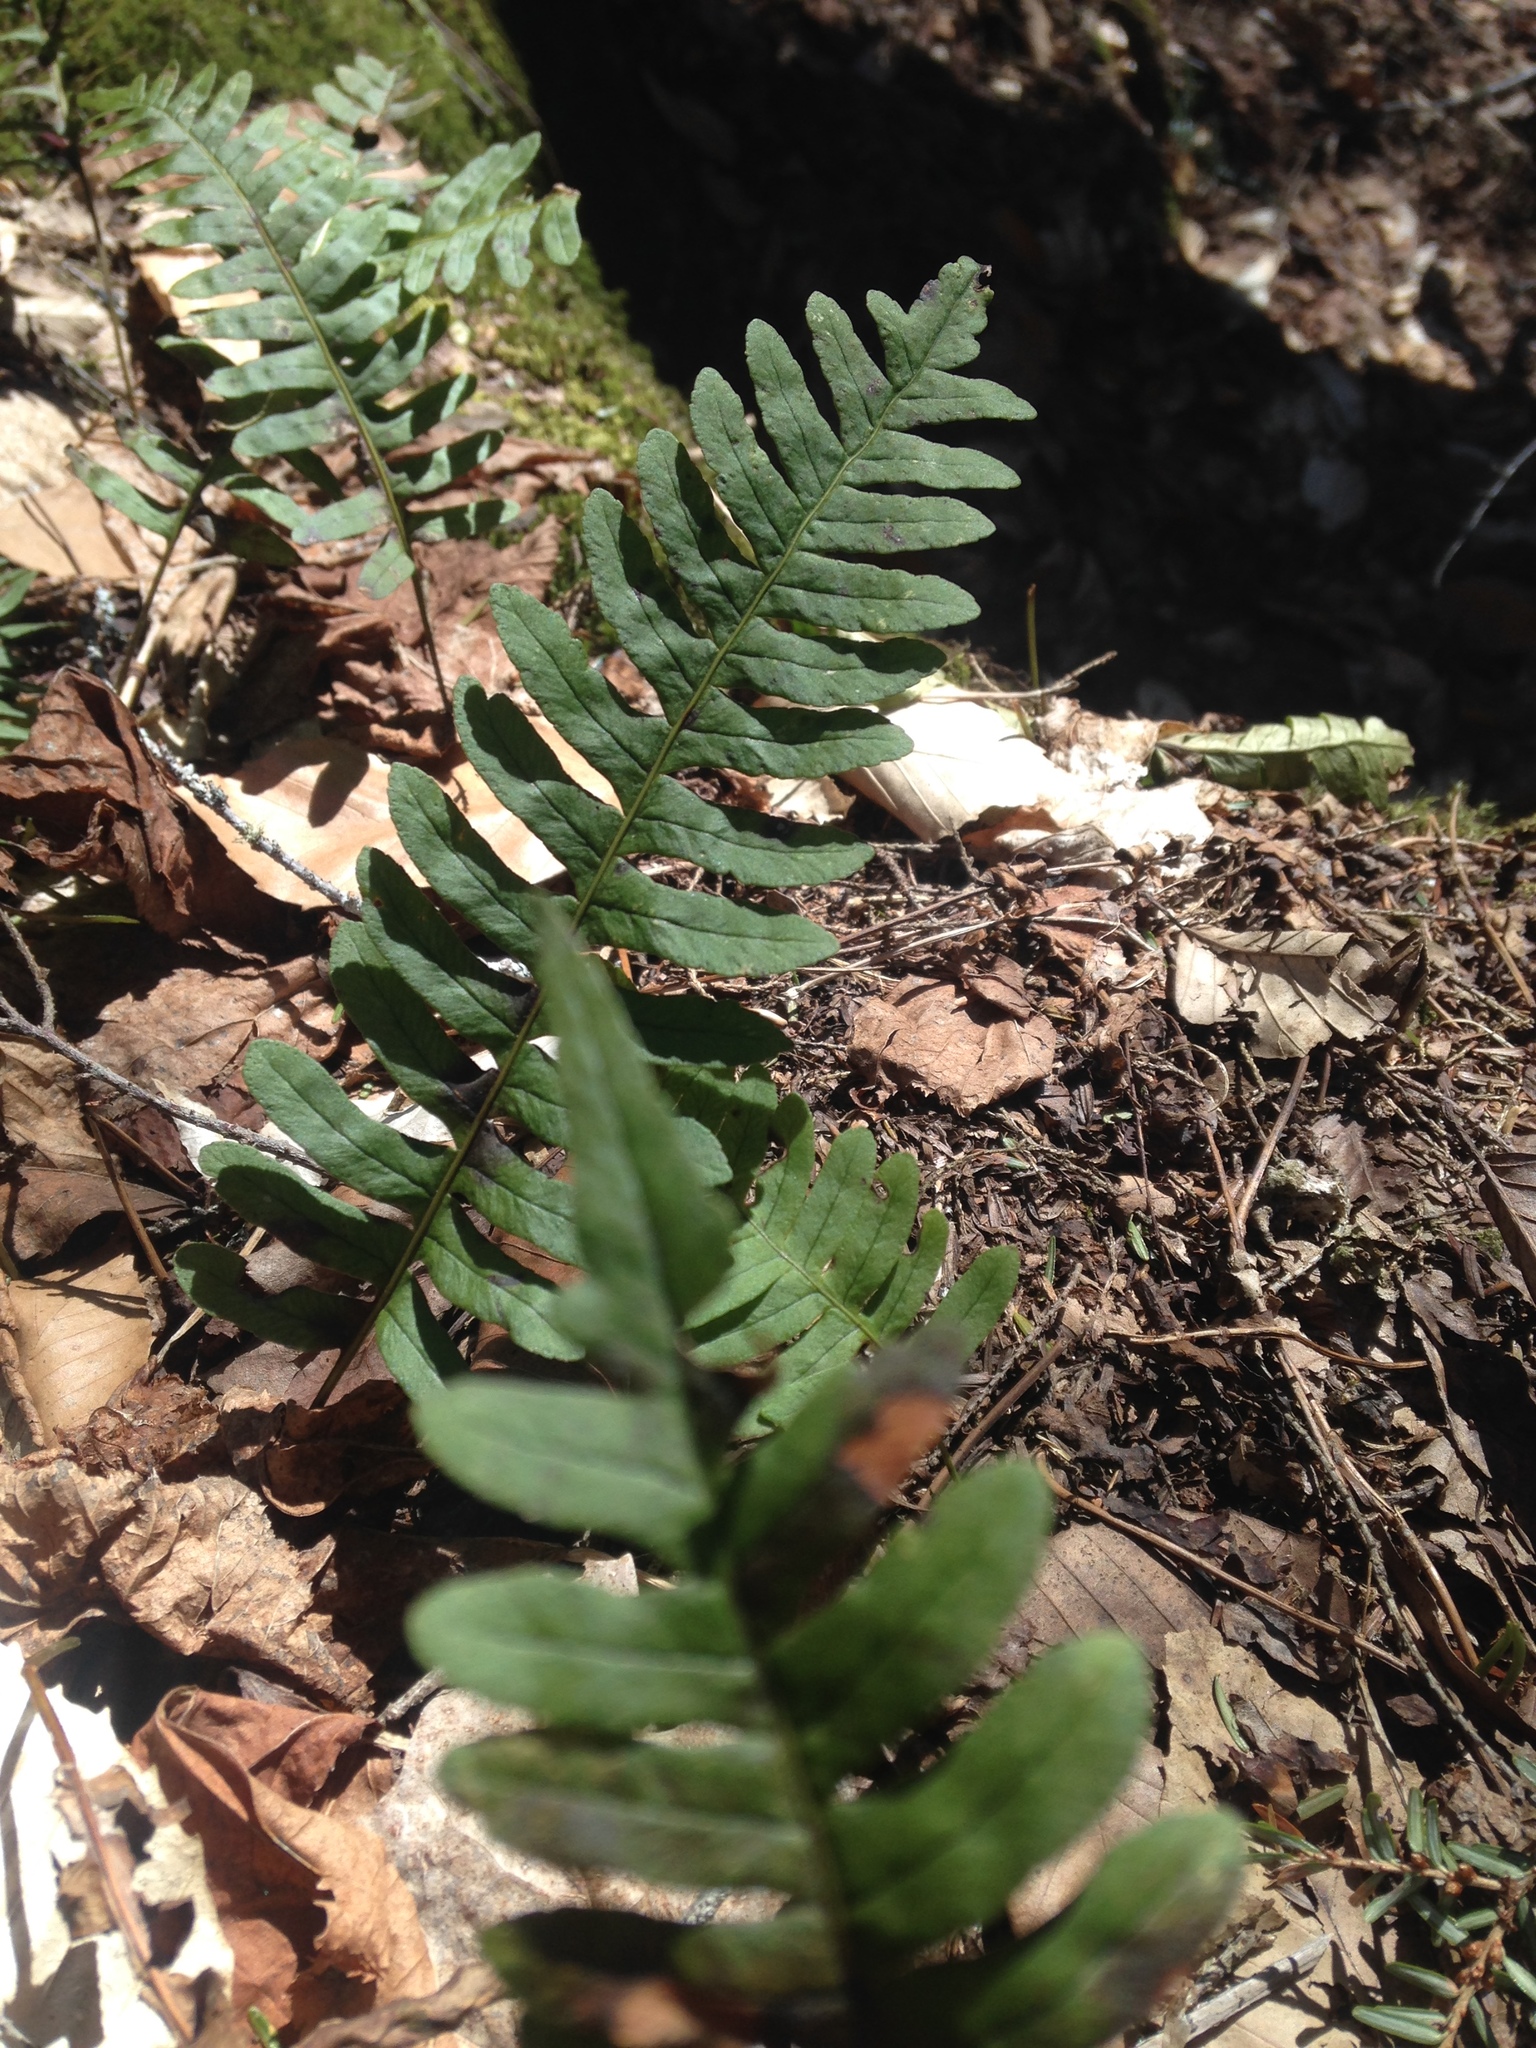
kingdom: Plantae
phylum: Tracheophyta
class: Polypodiopsida
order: Polypodiales
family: Polypodiaceae
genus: Polypodium
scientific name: Polypodium virginianum
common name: American wall fern
